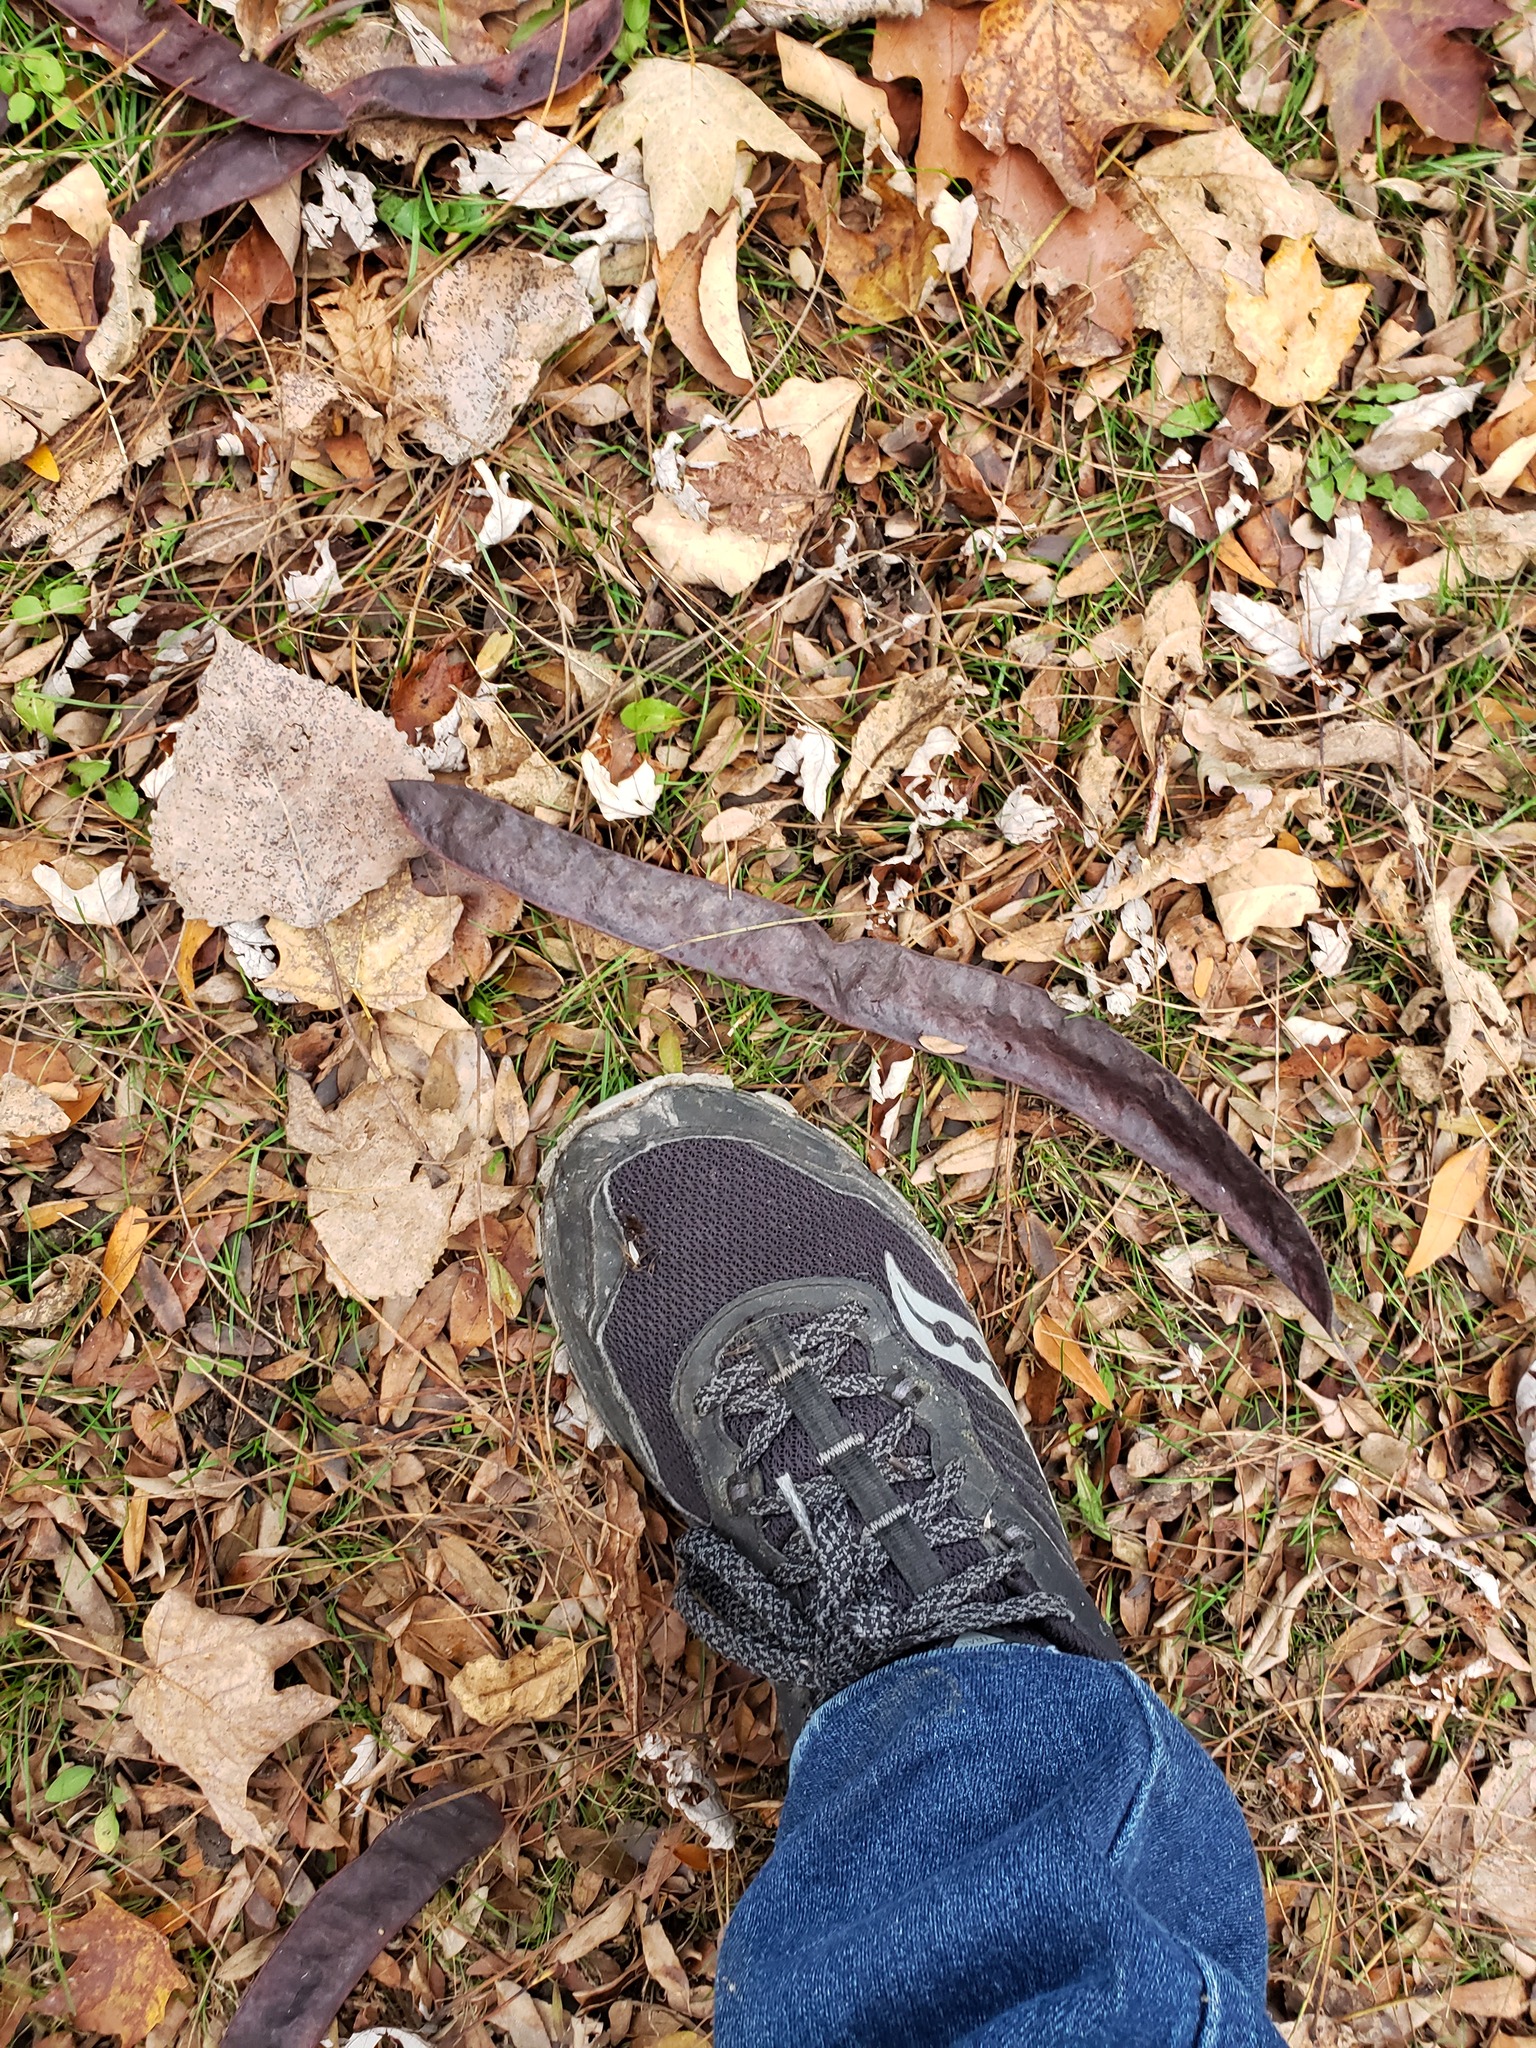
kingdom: Plantae
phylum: Tracheophyta
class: Magnoliopsida
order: Fabales
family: Fabaceae
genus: Gleditsia
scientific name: Gleditsia triacanthos
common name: Common honeylocust
